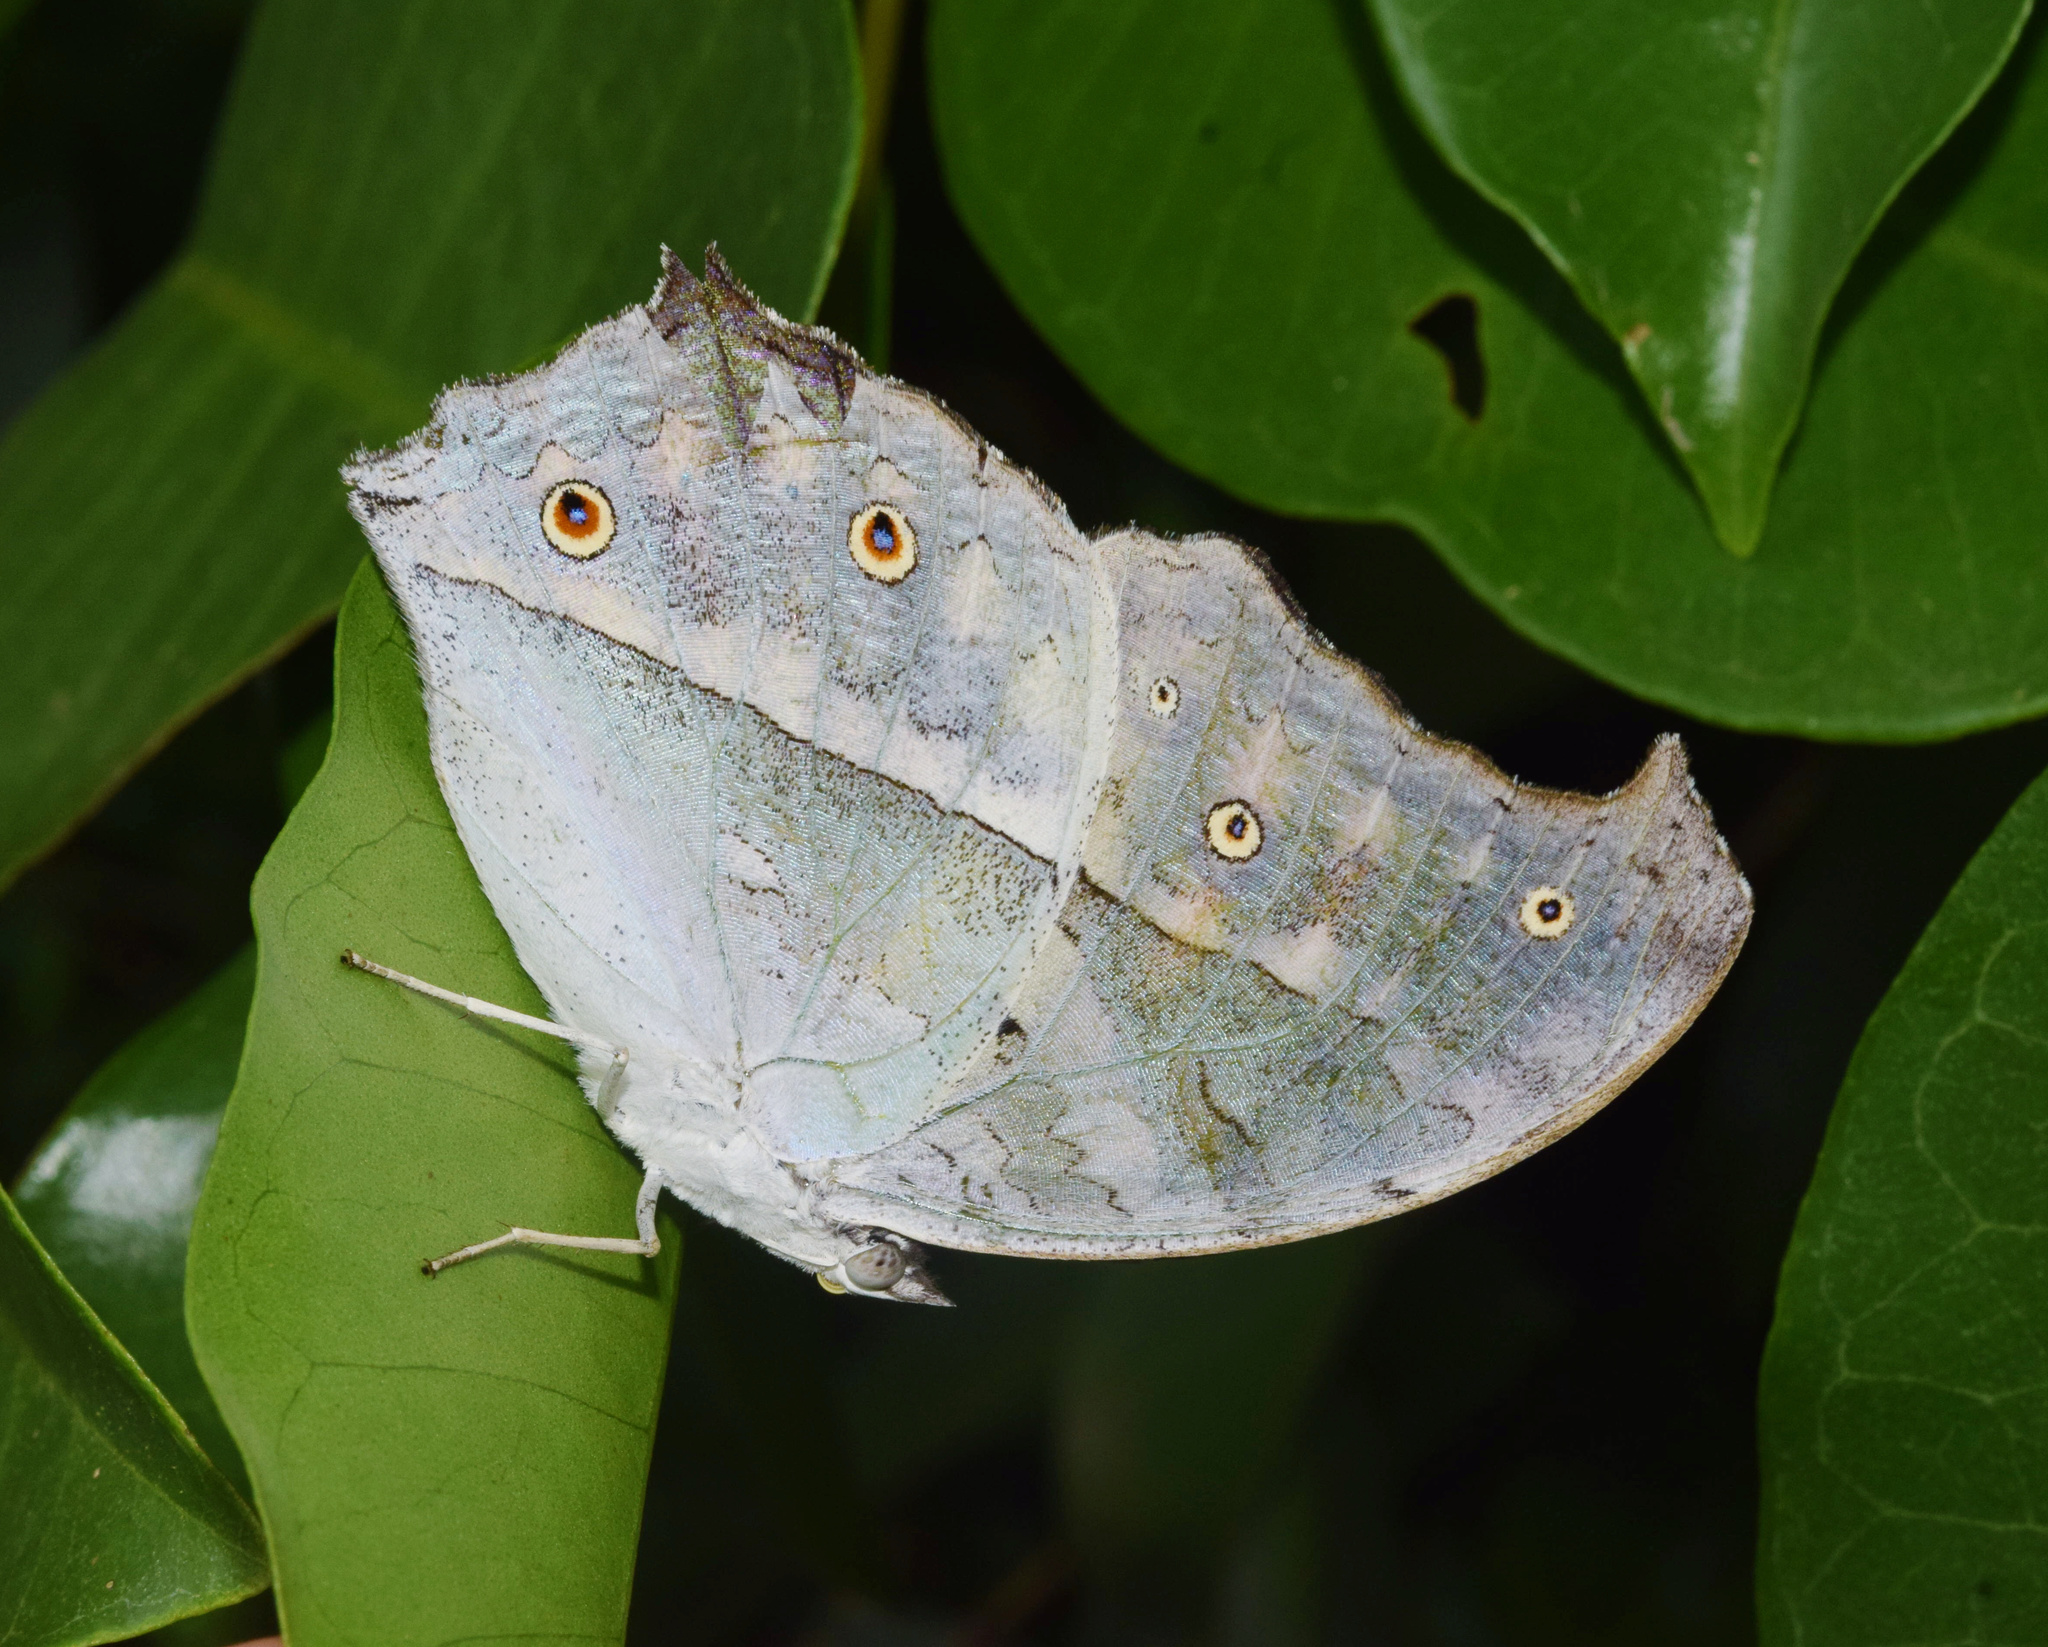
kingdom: Animalia
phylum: Arthropoda
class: Insecta
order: Lepidoptera
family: Nymphalidae
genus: Salamis
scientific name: Salamis Protogoniomorpha parhassus
